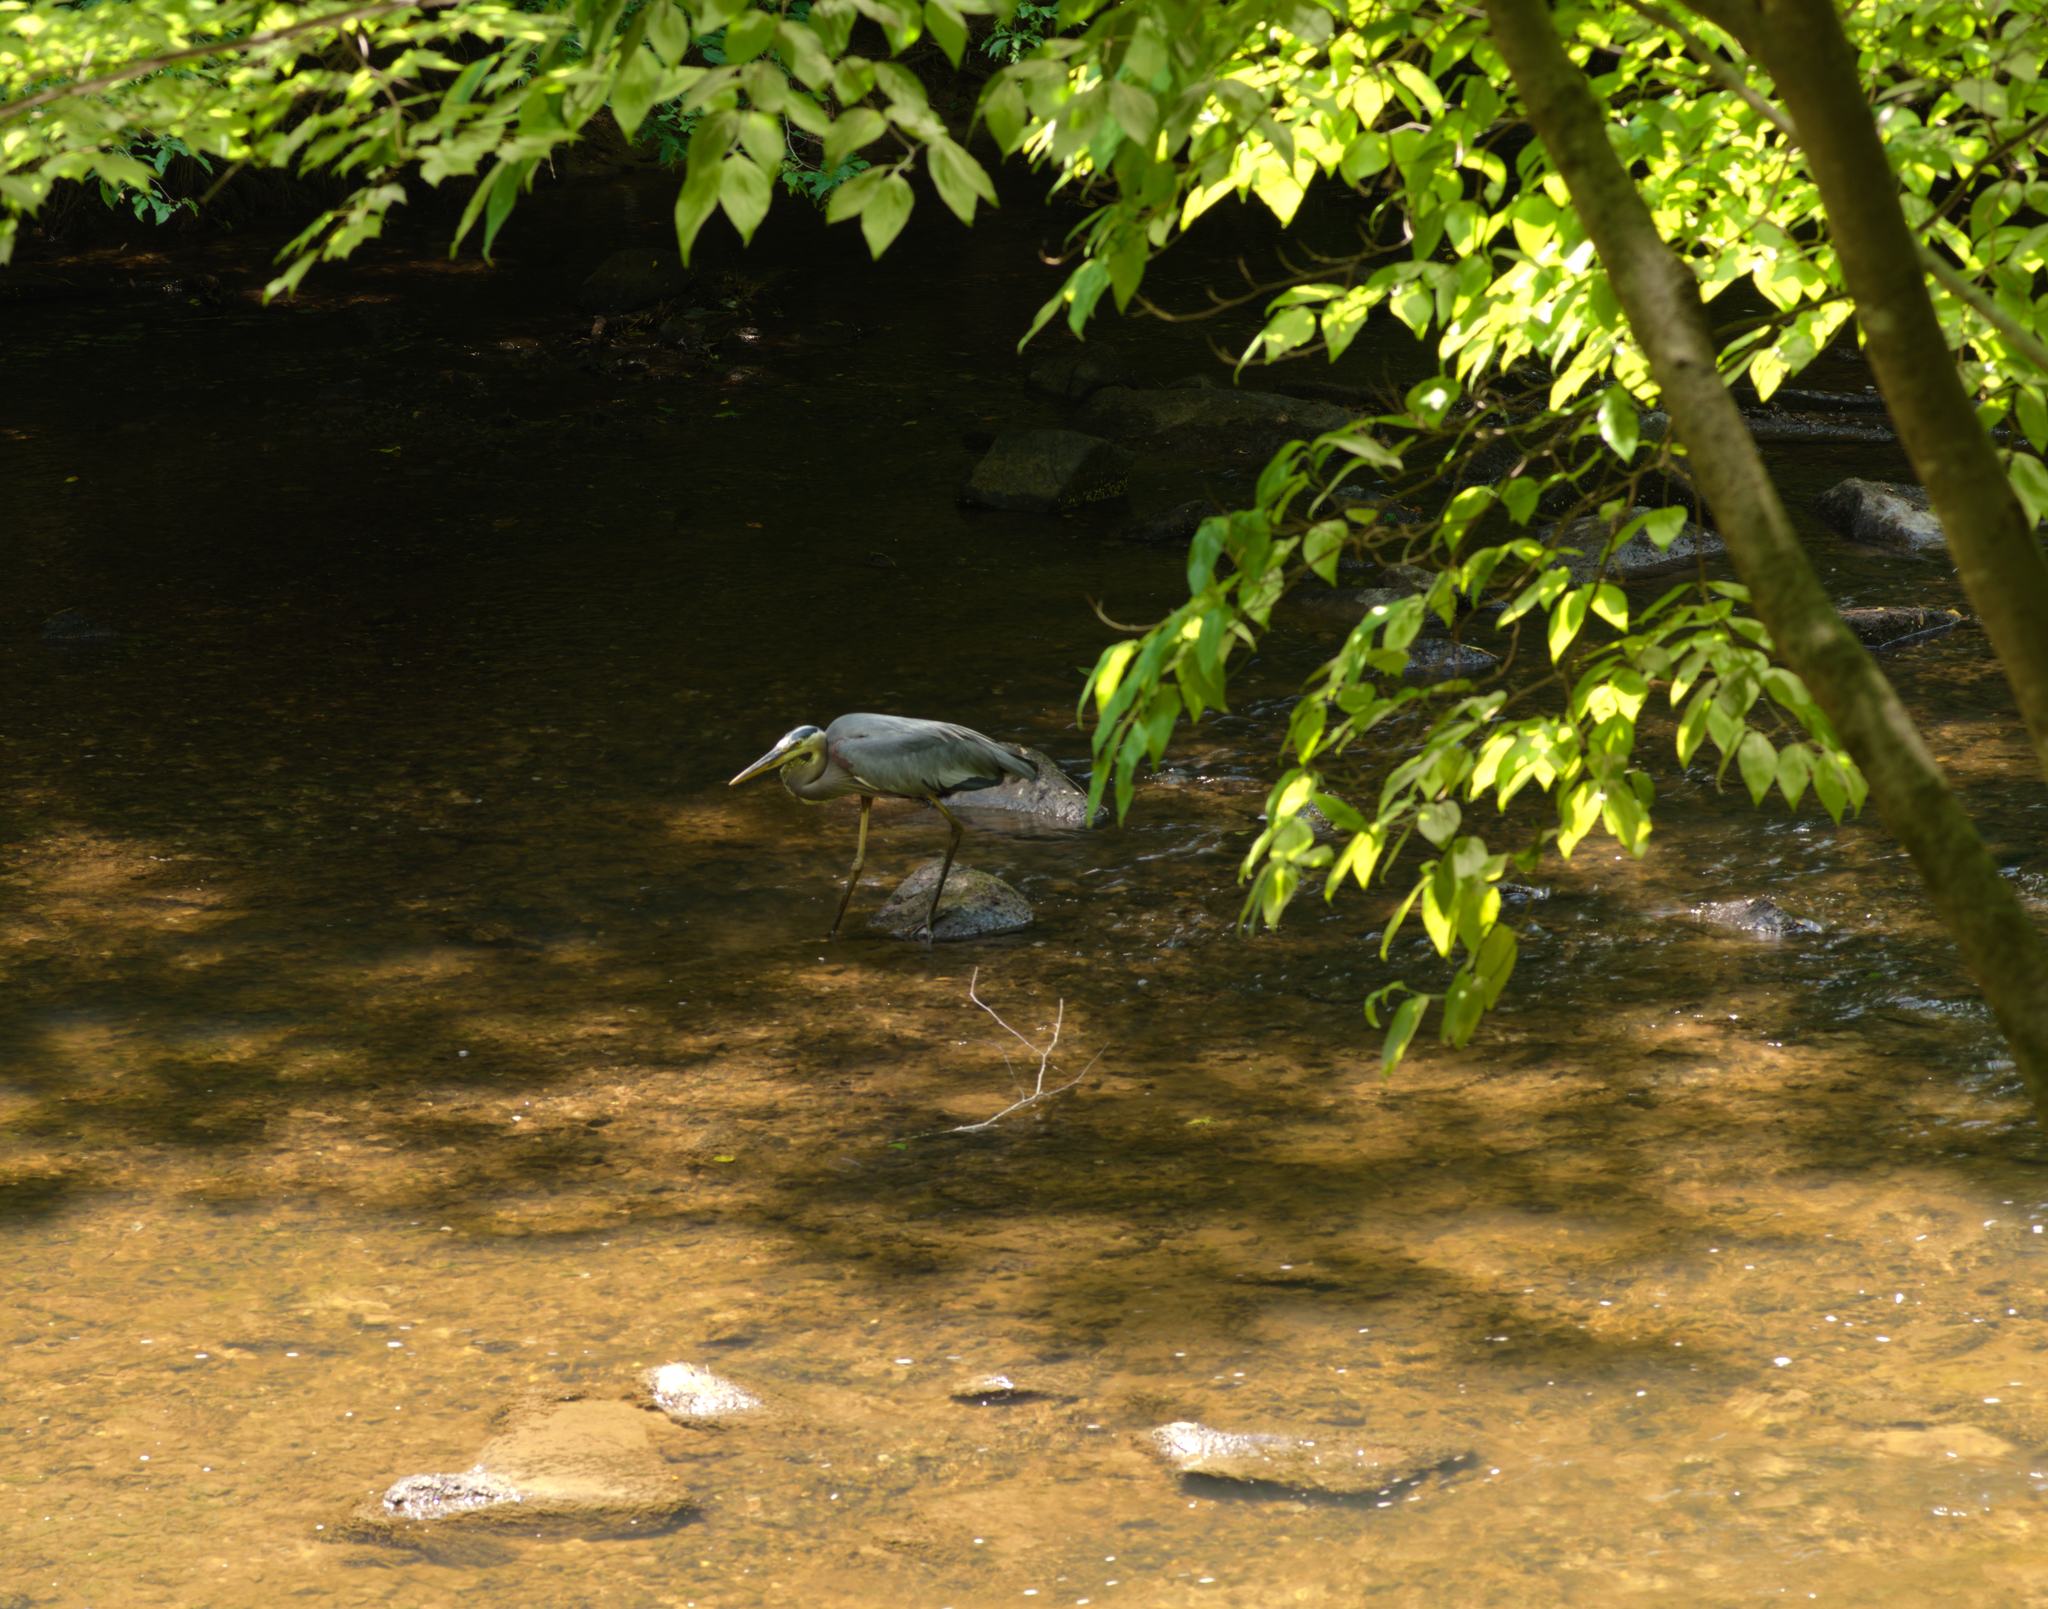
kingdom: Animalia
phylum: Chordata
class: Aves
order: Pelecaniformes
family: Ardeidae
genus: Ardea
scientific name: Ardea herodias
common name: Great blue heron
